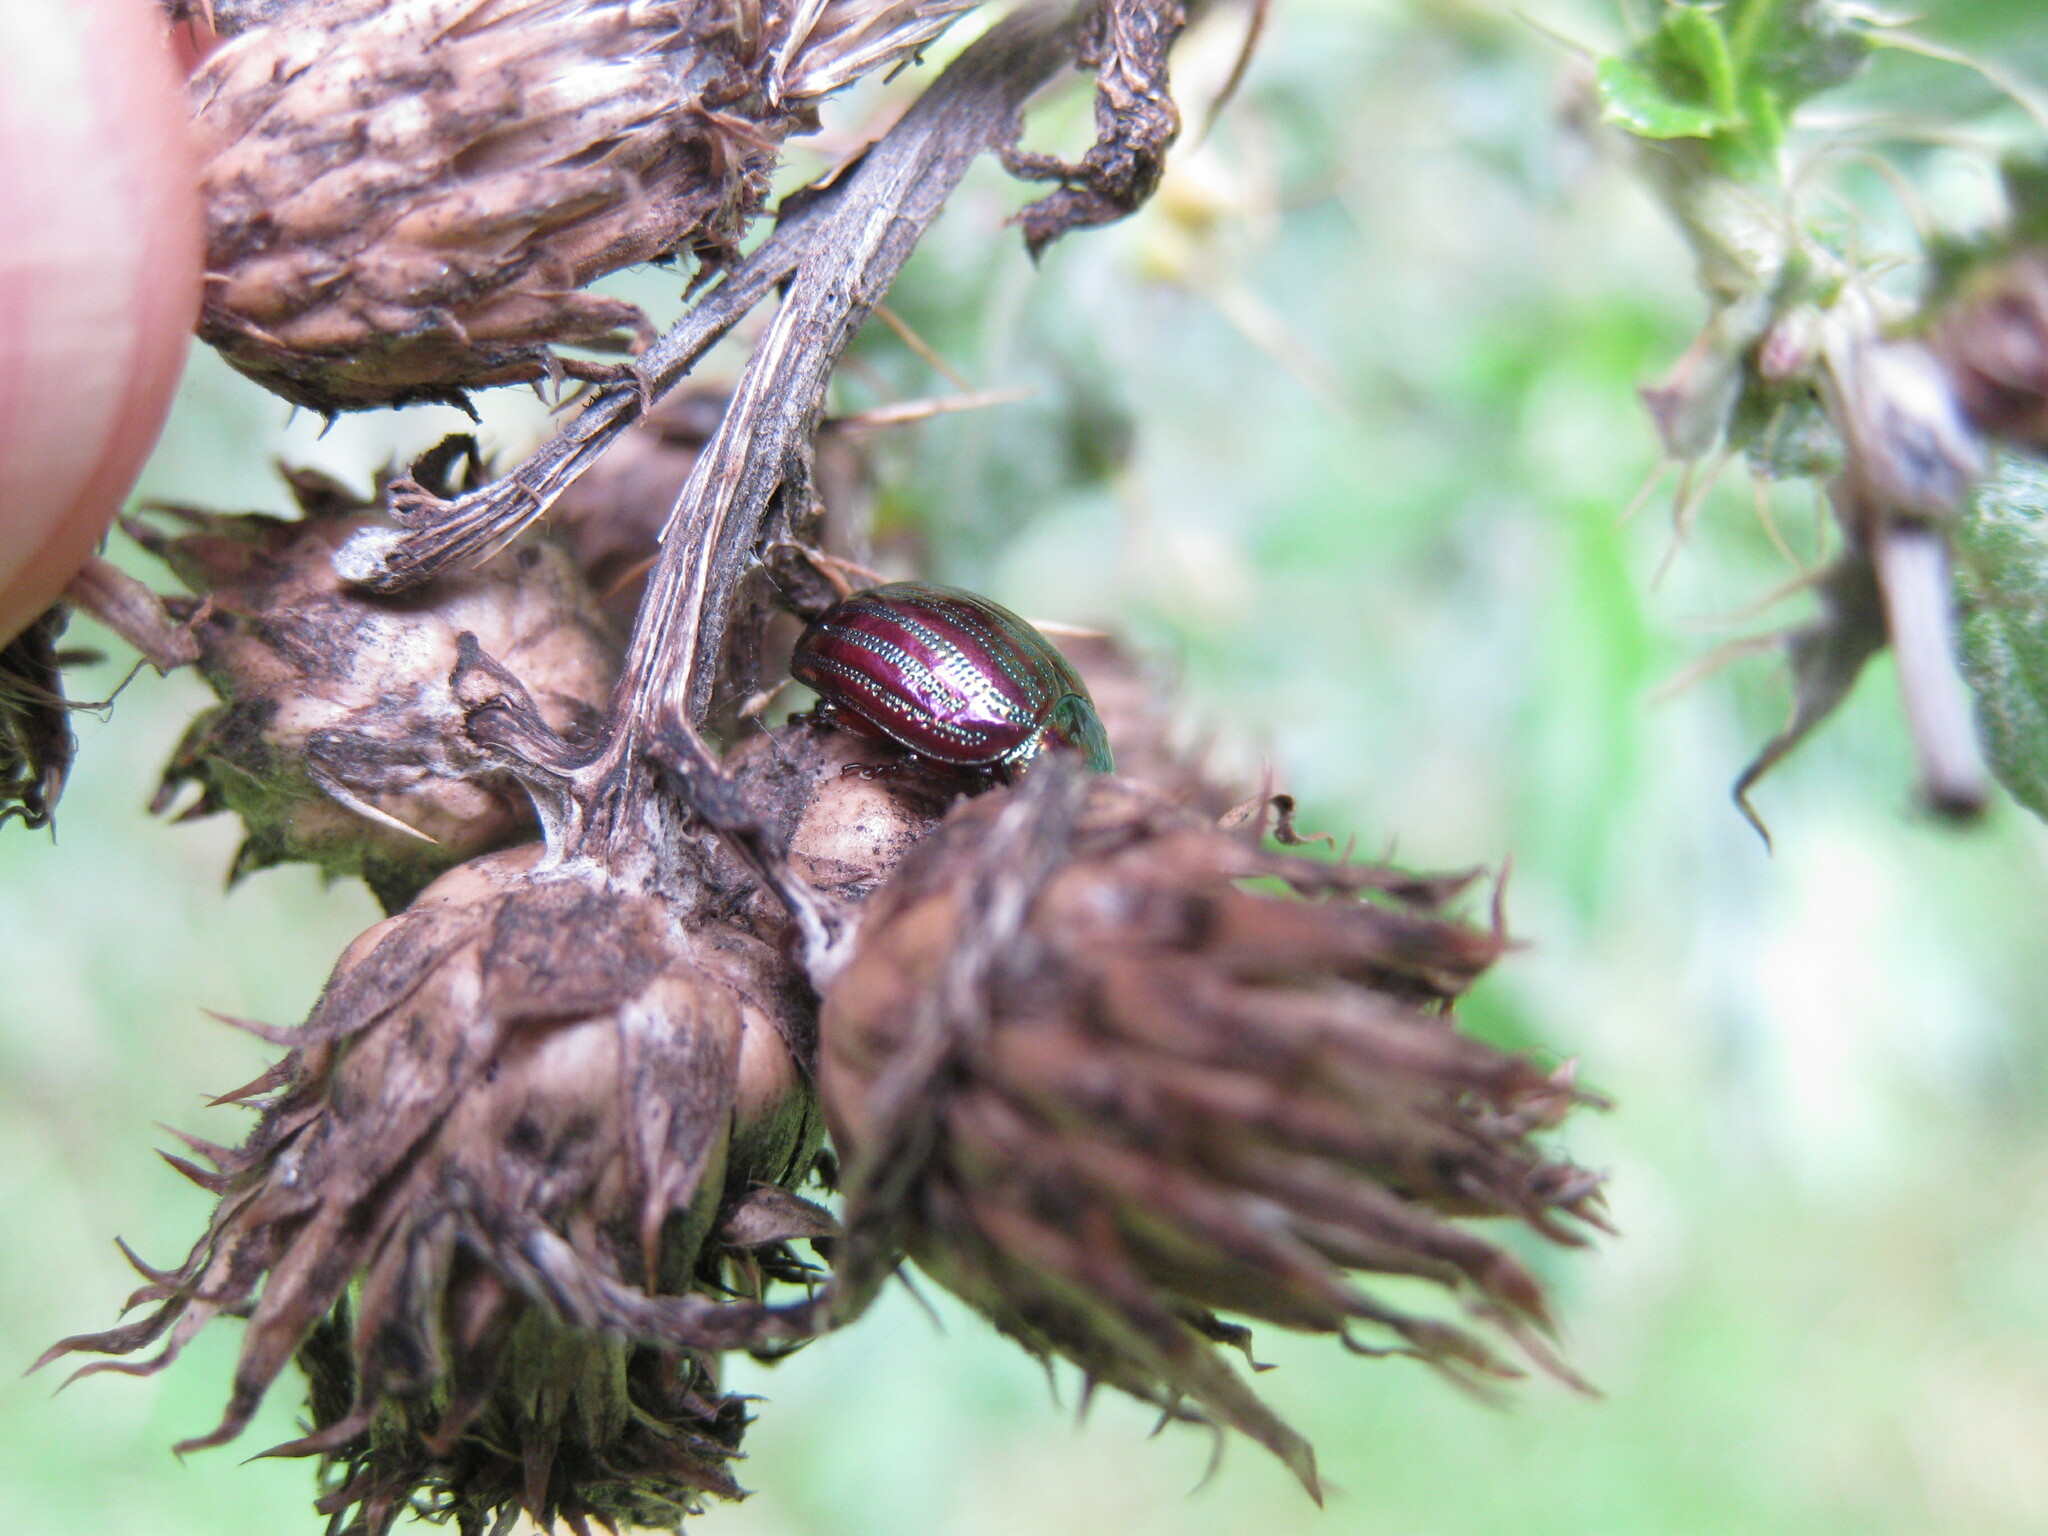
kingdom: Animalia
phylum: Arthropoda
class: Insecta
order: Coleoptera
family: Chrysomelidae
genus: Chrysolina
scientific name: Chrysolina americana
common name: Rosemary beetle
